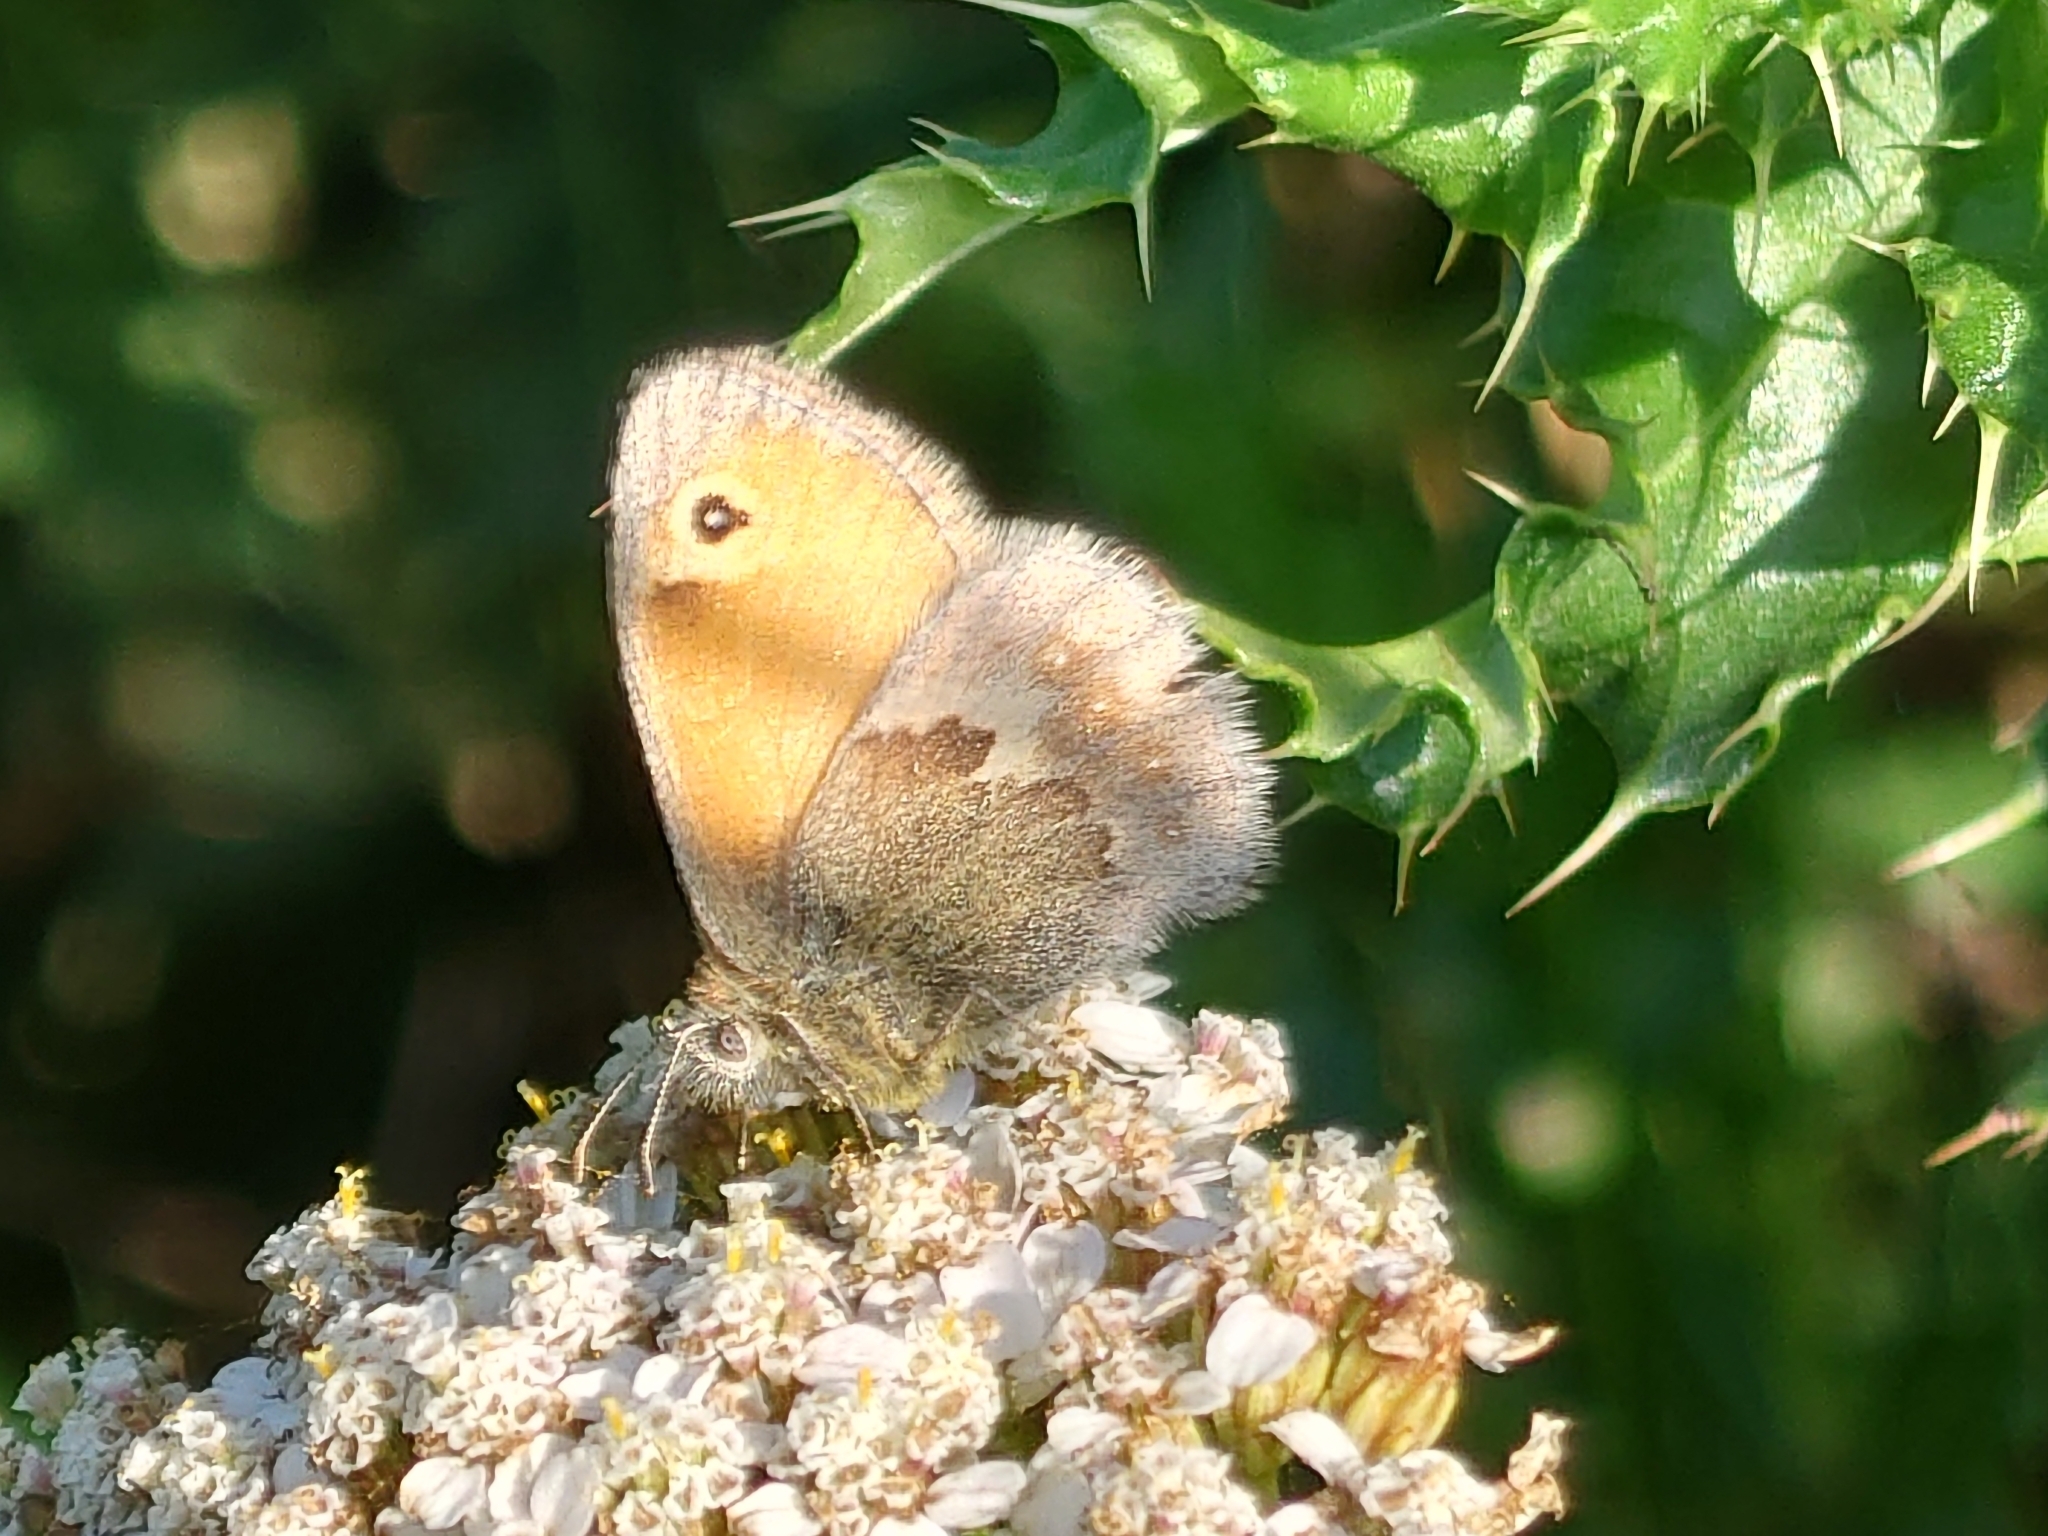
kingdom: Animalia
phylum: Arthropoda
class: Insecta
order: Lepidoptera
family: Nymphalidae
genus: Coenonympha
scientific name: Coenonympha pamphilus
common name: Small heath
